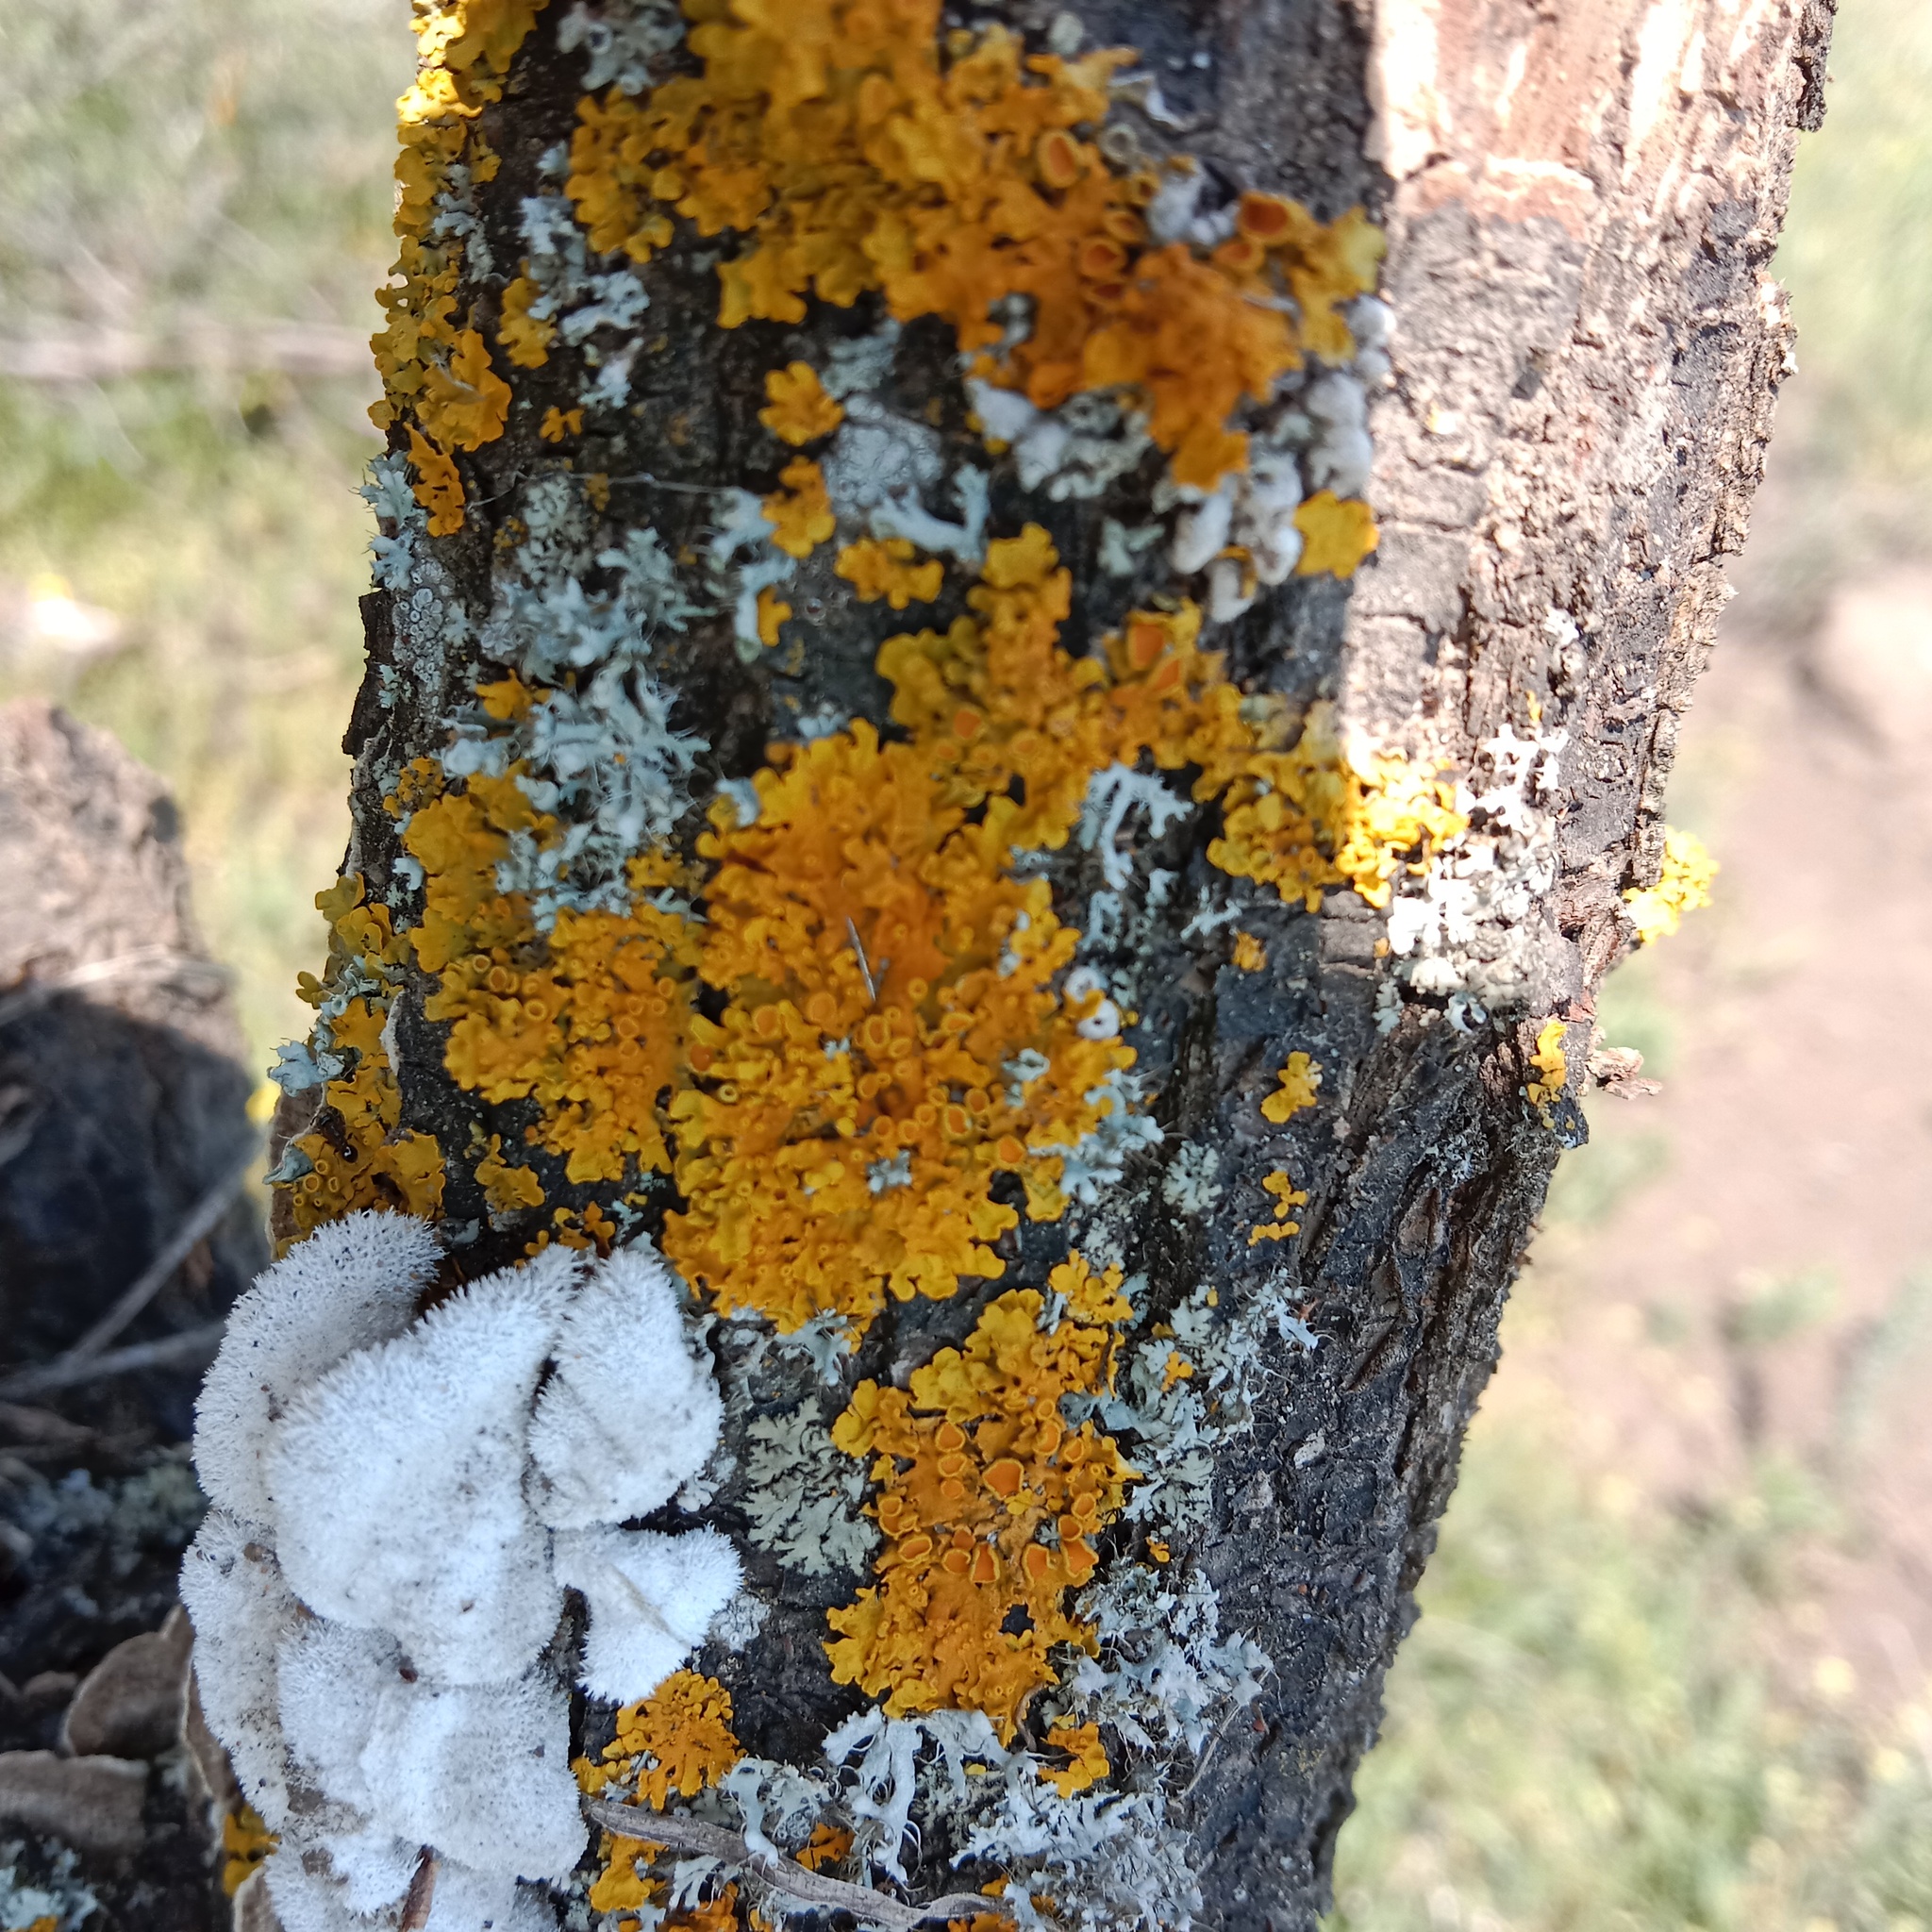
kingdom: Fungi
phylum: Ascomycota
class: Lecanoromycetes
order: Teloschistales
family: Teloschistaceae
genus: Xanthoria
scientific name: Xanthoria parietina
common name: Common orange lichen
